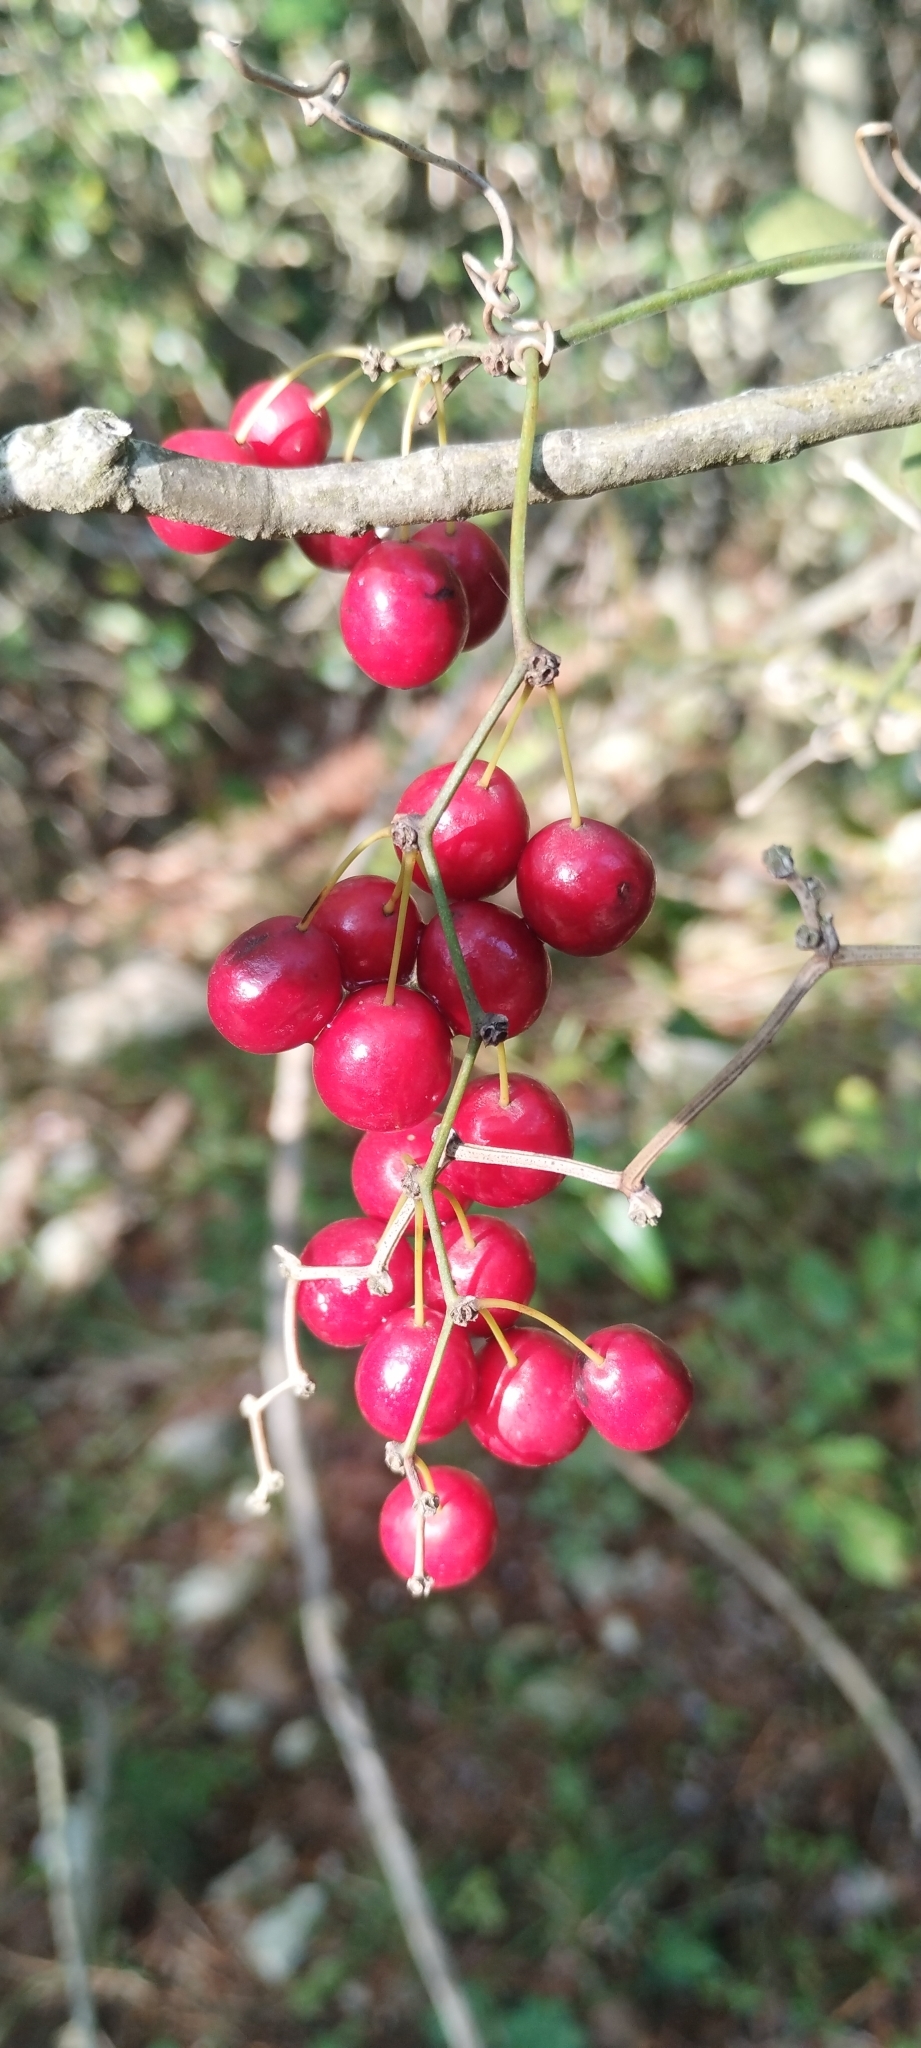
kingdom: Plantae
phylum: Tracheophyta
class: Liliopsida
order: Liliales
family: Smilacaceae
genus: Smilax
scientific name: Smilax aspera
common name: Common smilax
